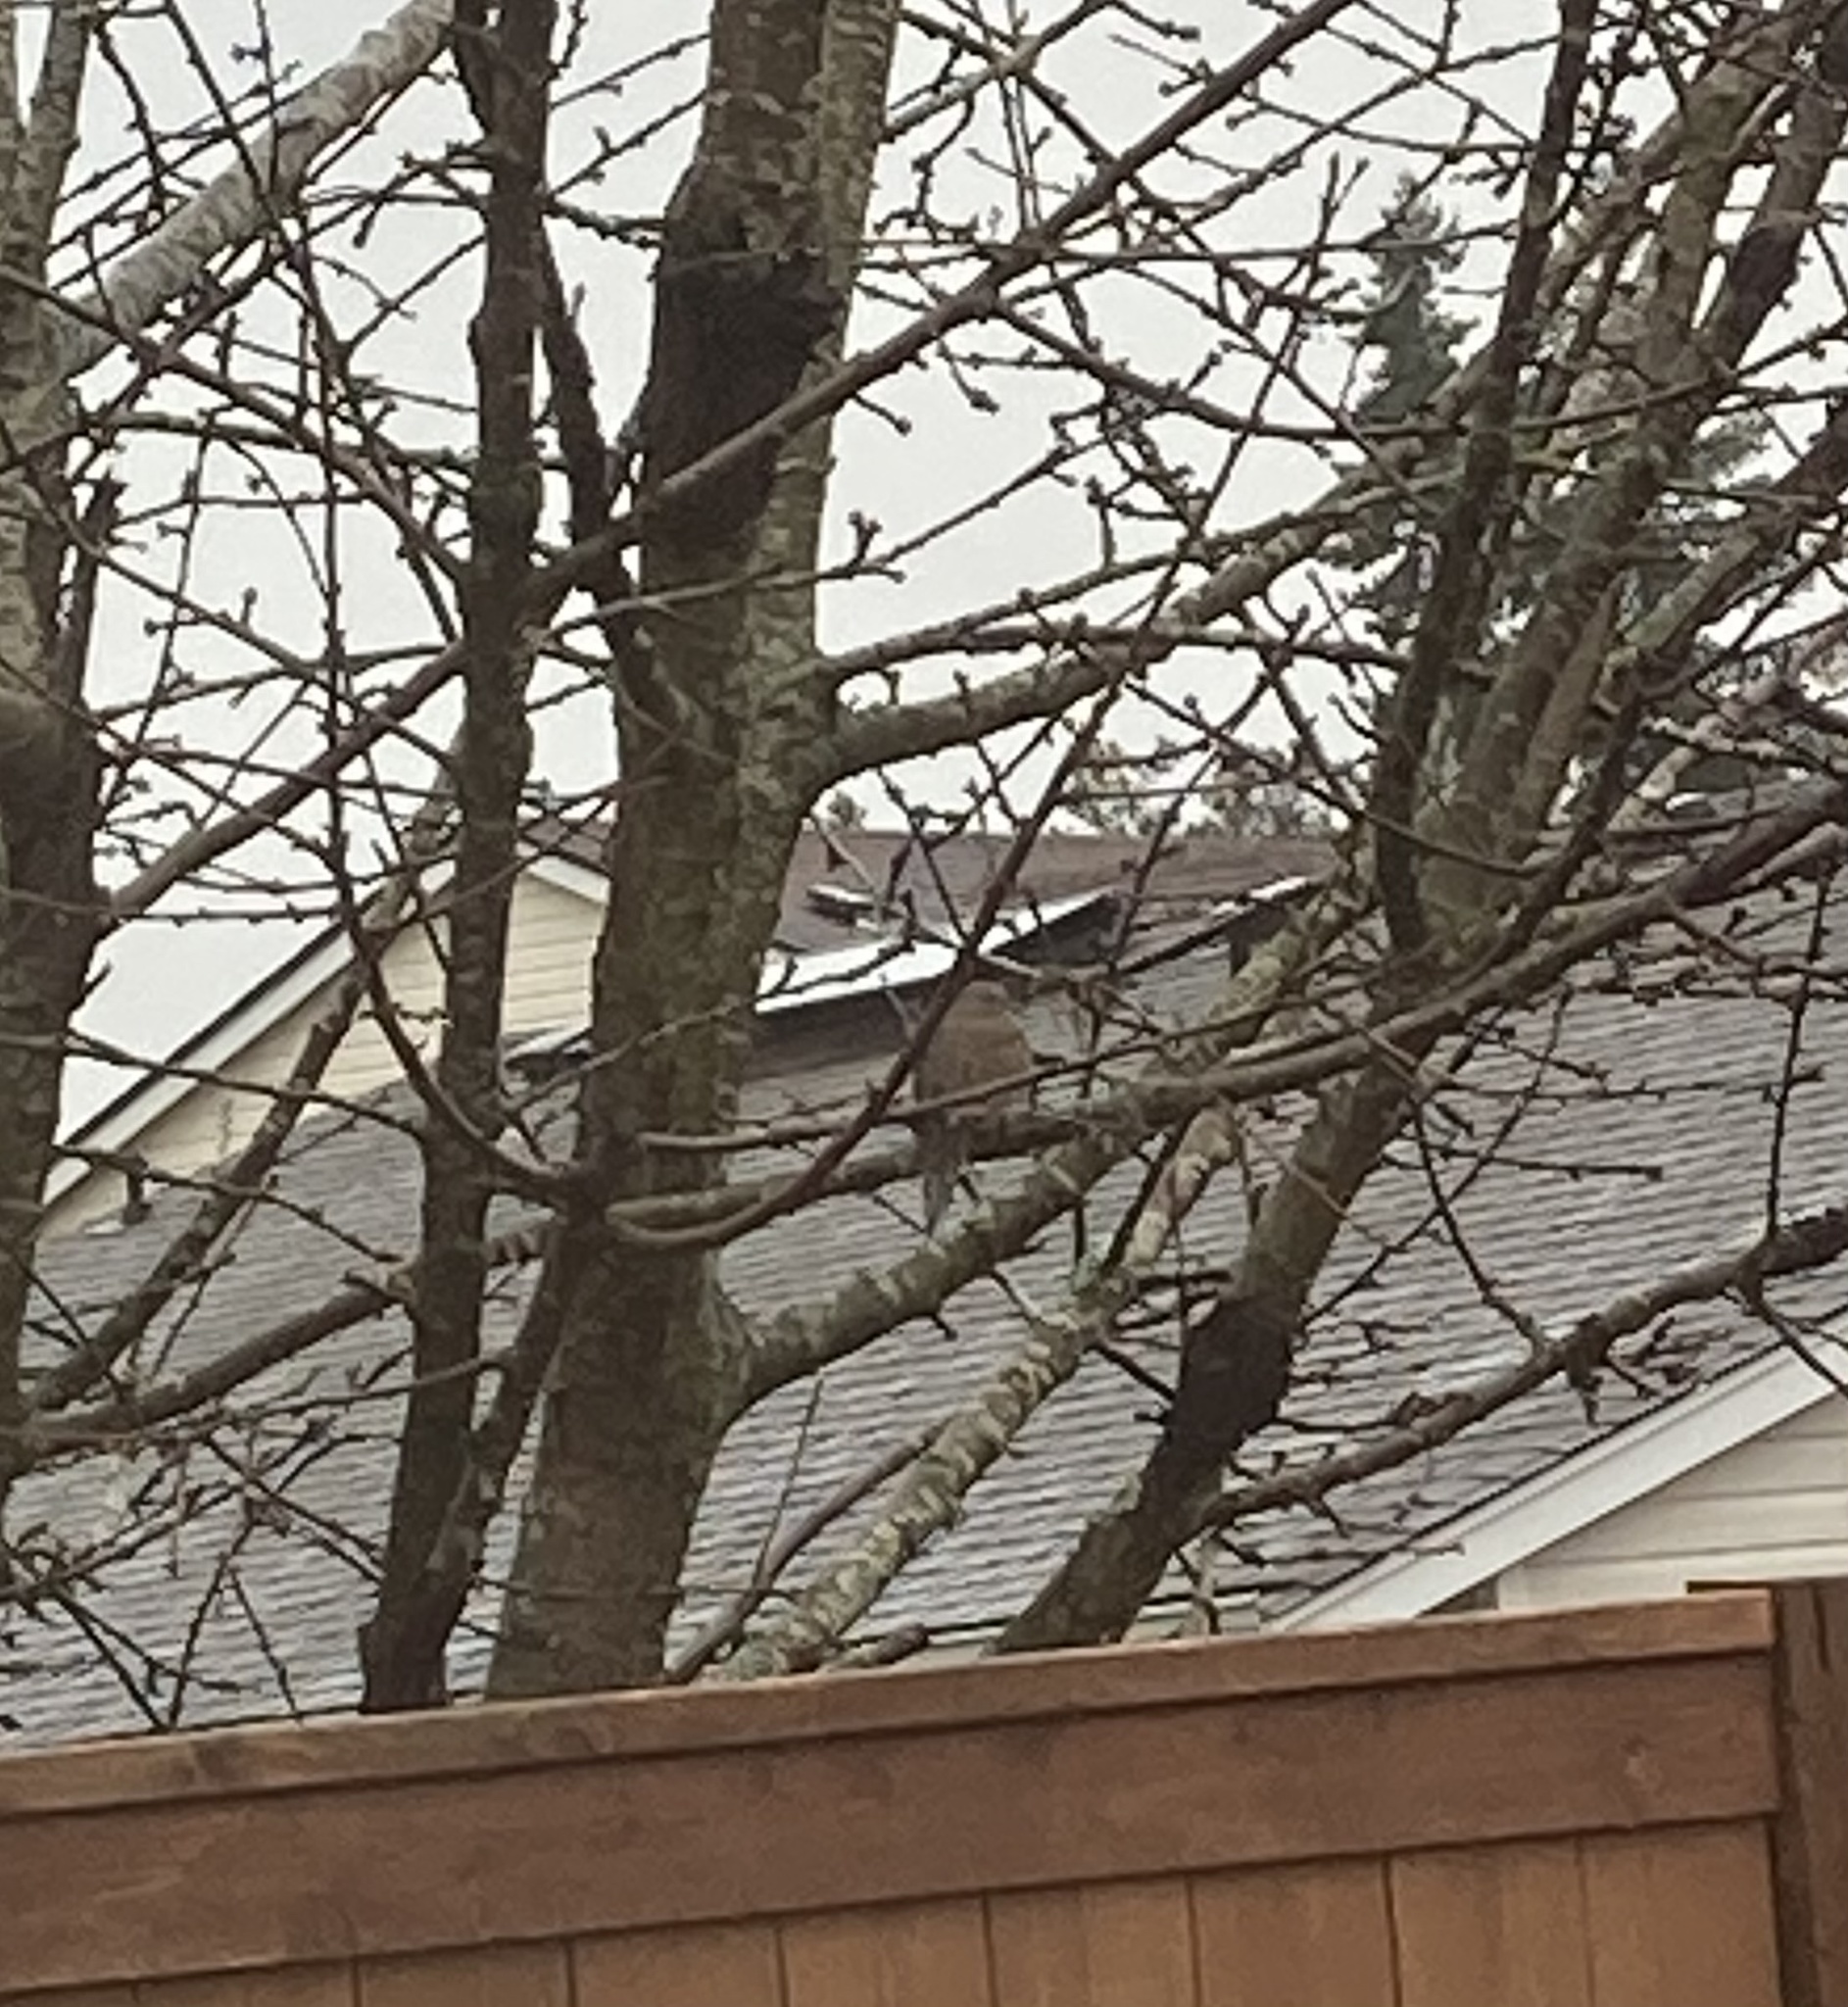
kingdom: Animalia
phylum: Chordata
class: Aves
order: Columbiformes
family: Columbidae
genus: Zenaida
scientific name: Zenaida macroura
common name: Mourning dove
